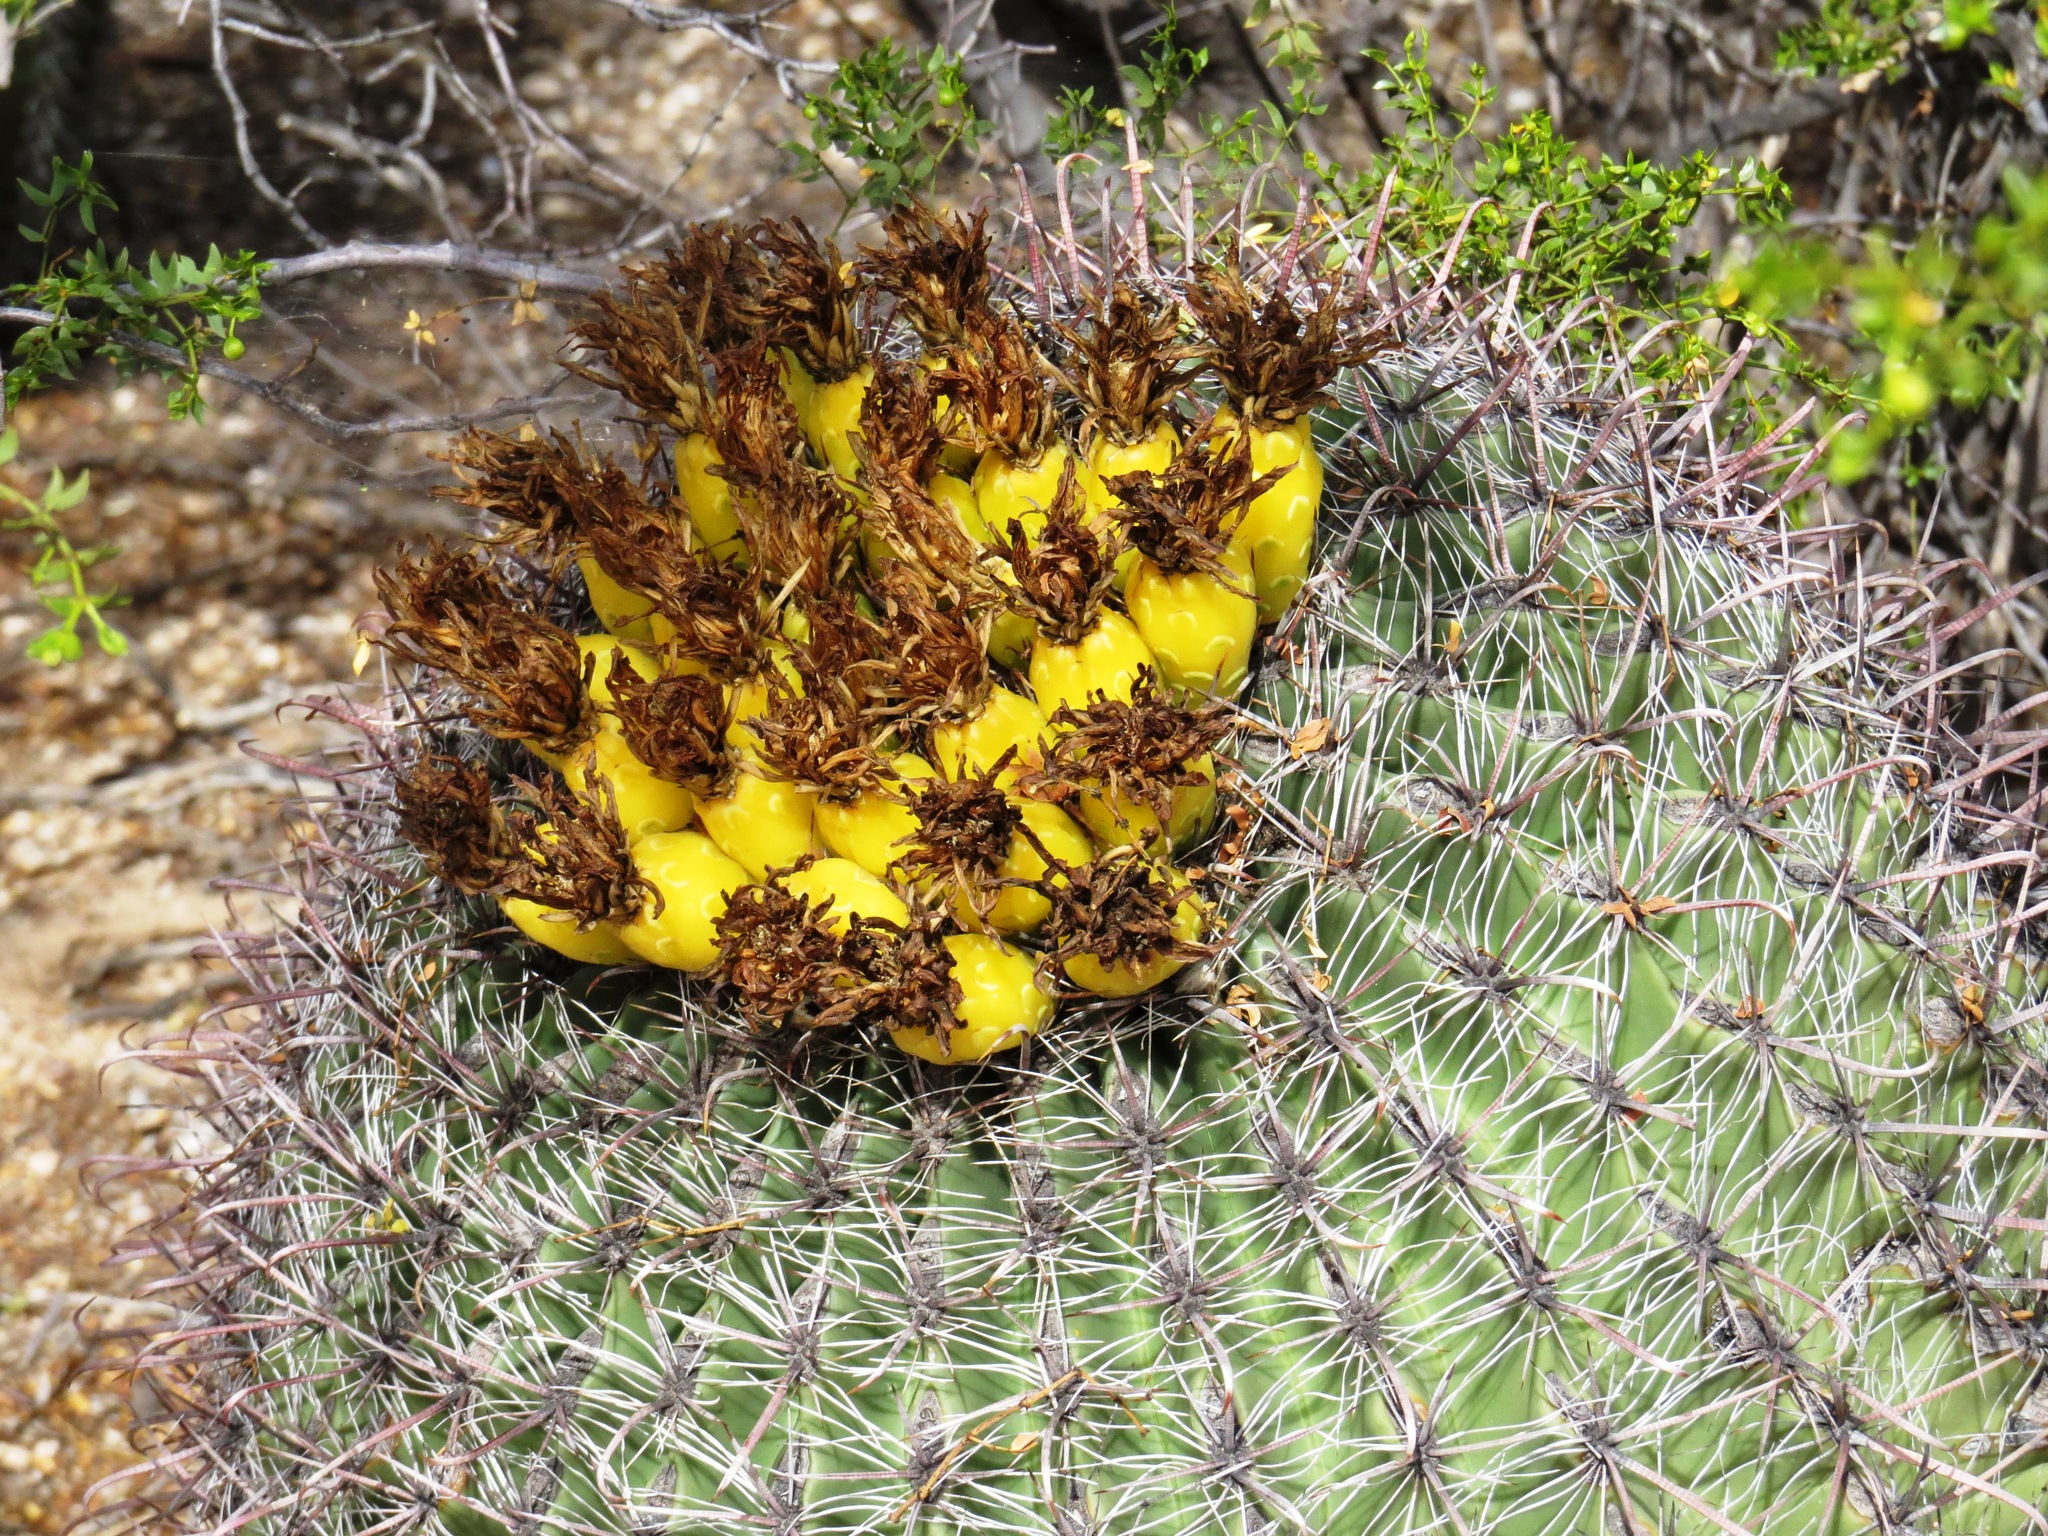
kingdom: Plantae
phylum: Tracheophyta
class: Magnoliopsida
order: Caryophyllales
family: Cactaceae
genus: Ferocactus
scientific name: Ferocactus wislizeni
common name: Candy barrel cactus
